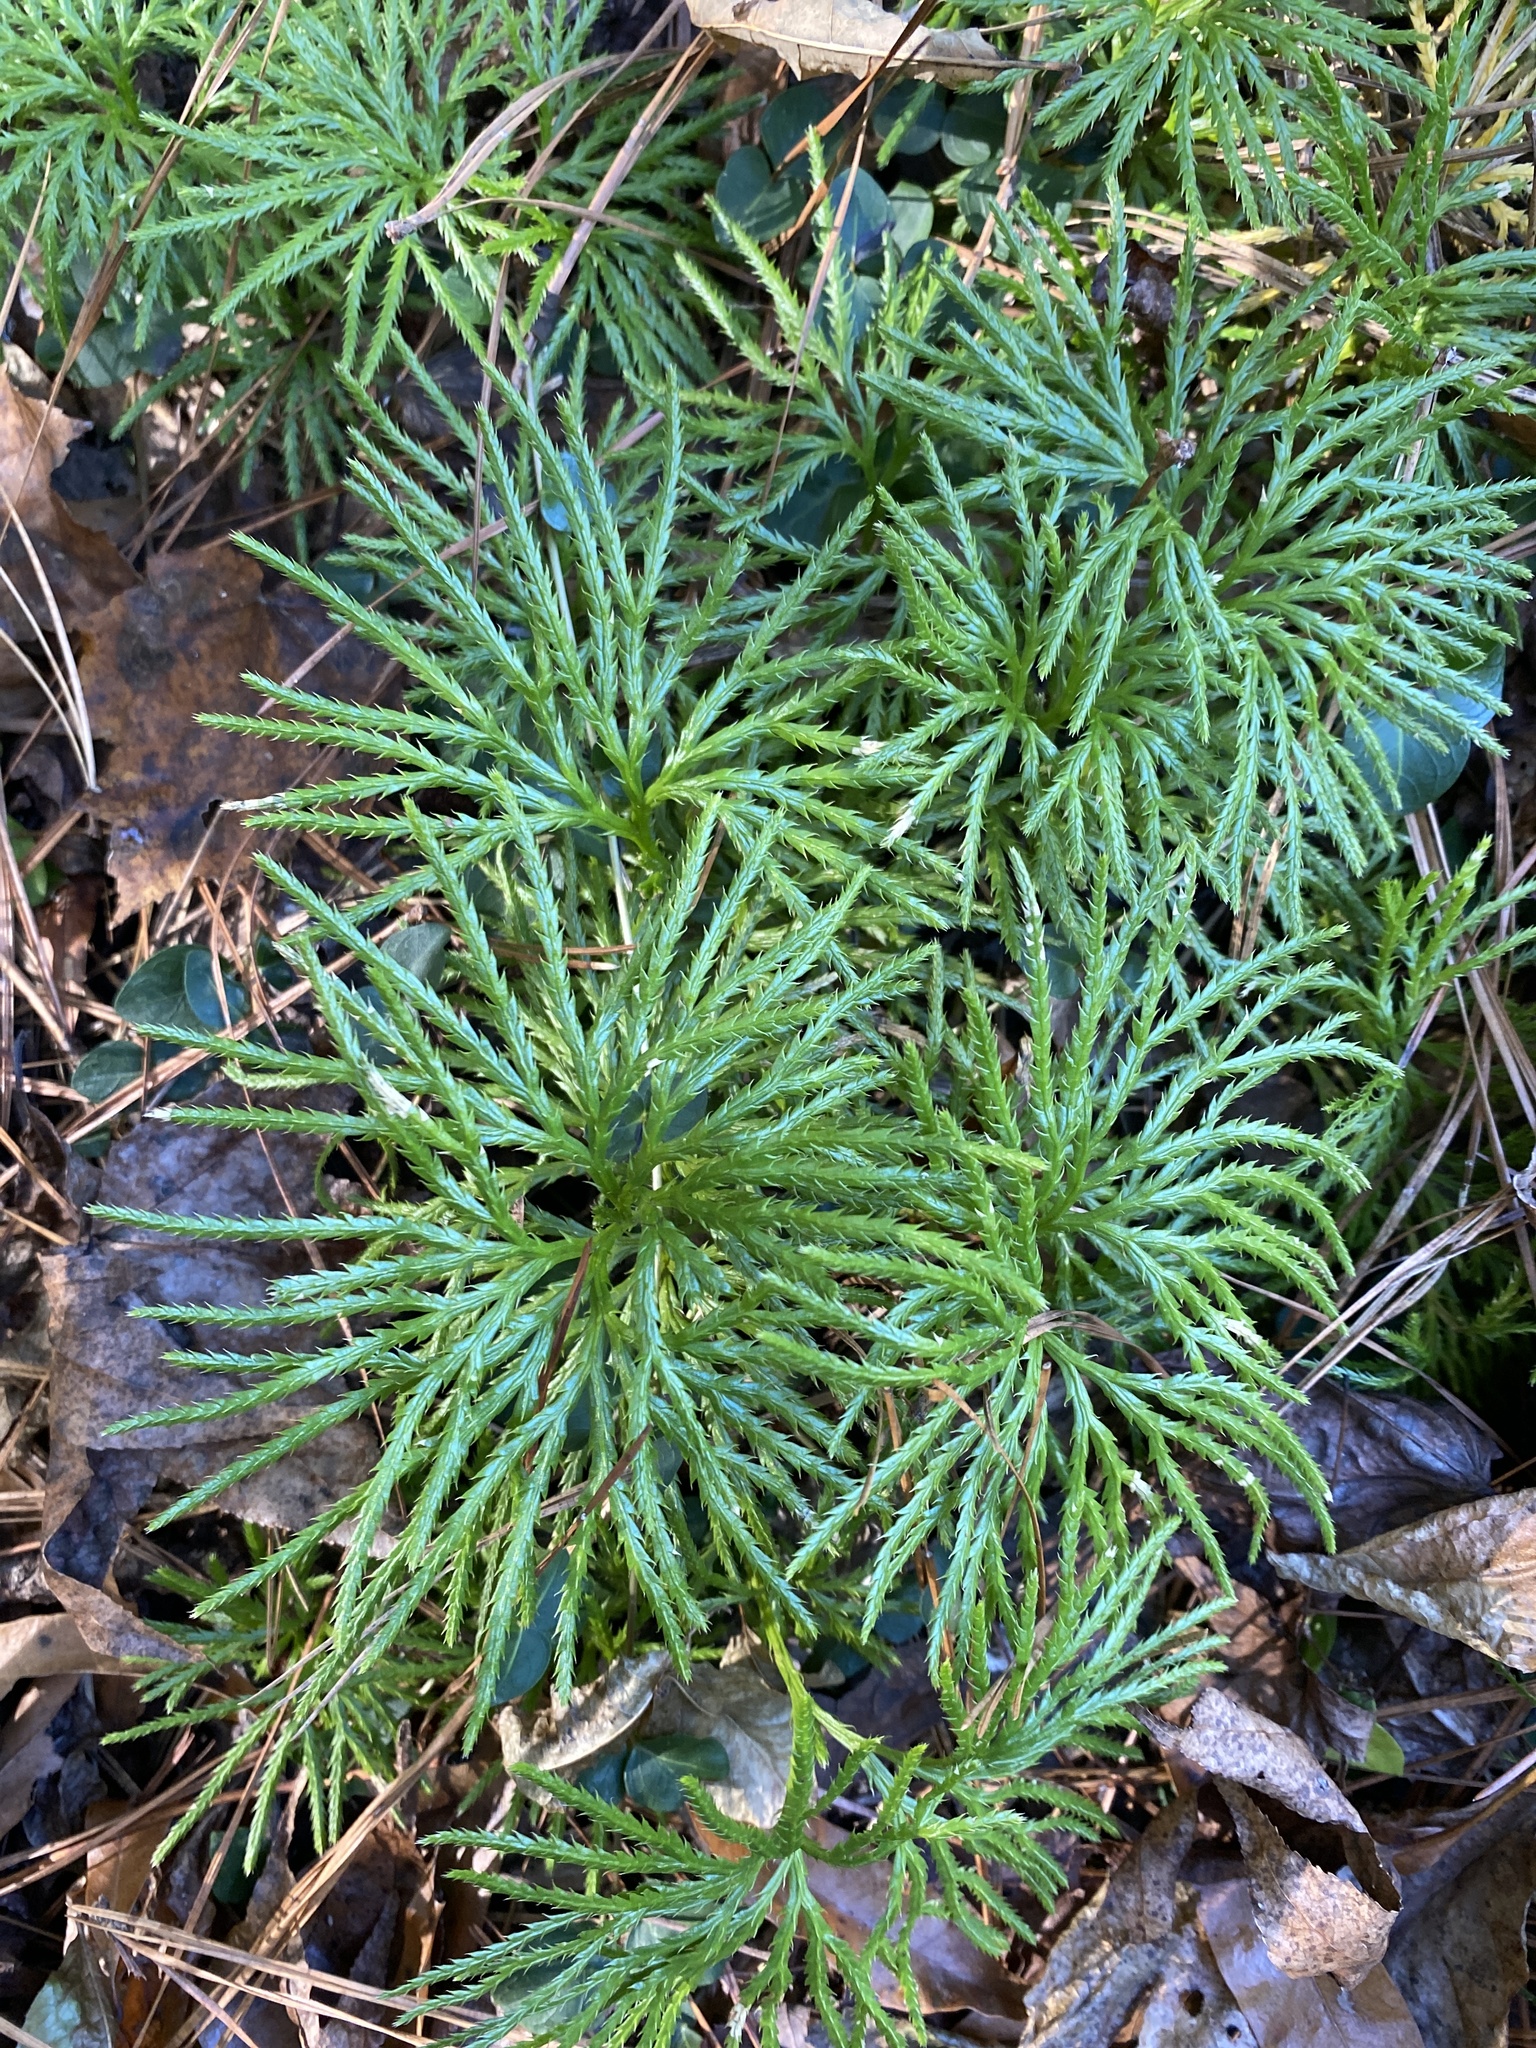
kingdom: Plantae
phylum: Tracheophyta
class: Lycopodiopsida
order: Lycopodiales
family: Lycopodiaceae
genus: Diphasiastrum
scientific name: Diphasiastrum digitatum
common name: Southern running-pine
